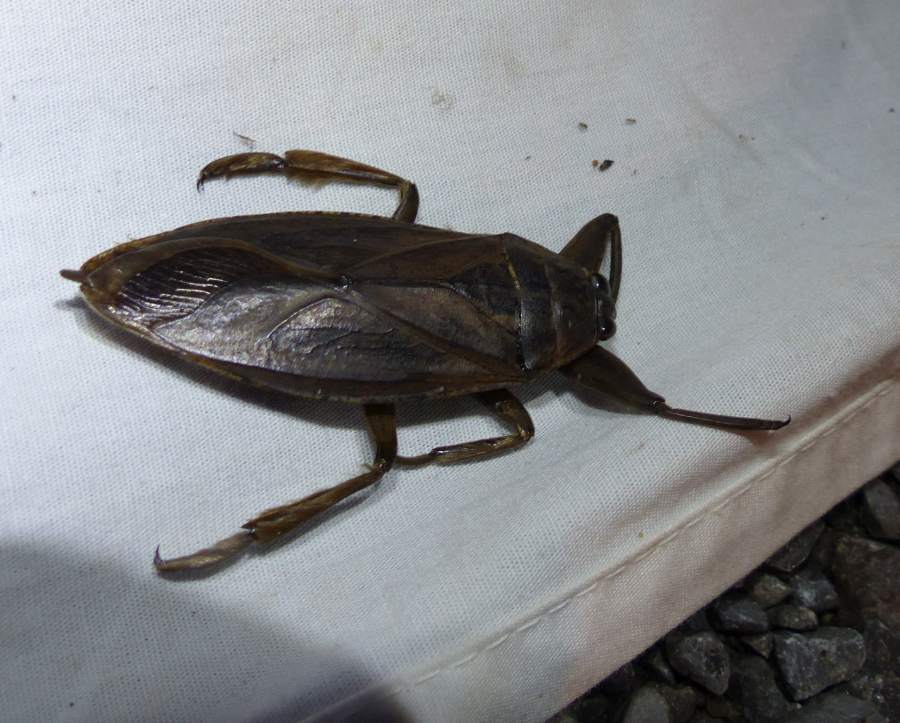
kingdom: Animalia
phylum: Arthropoda
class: Insecta
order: Hemiptera
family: Belostomatidae
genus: Lethocerus
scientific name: Lethocerus americanus
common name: Giant water bug
